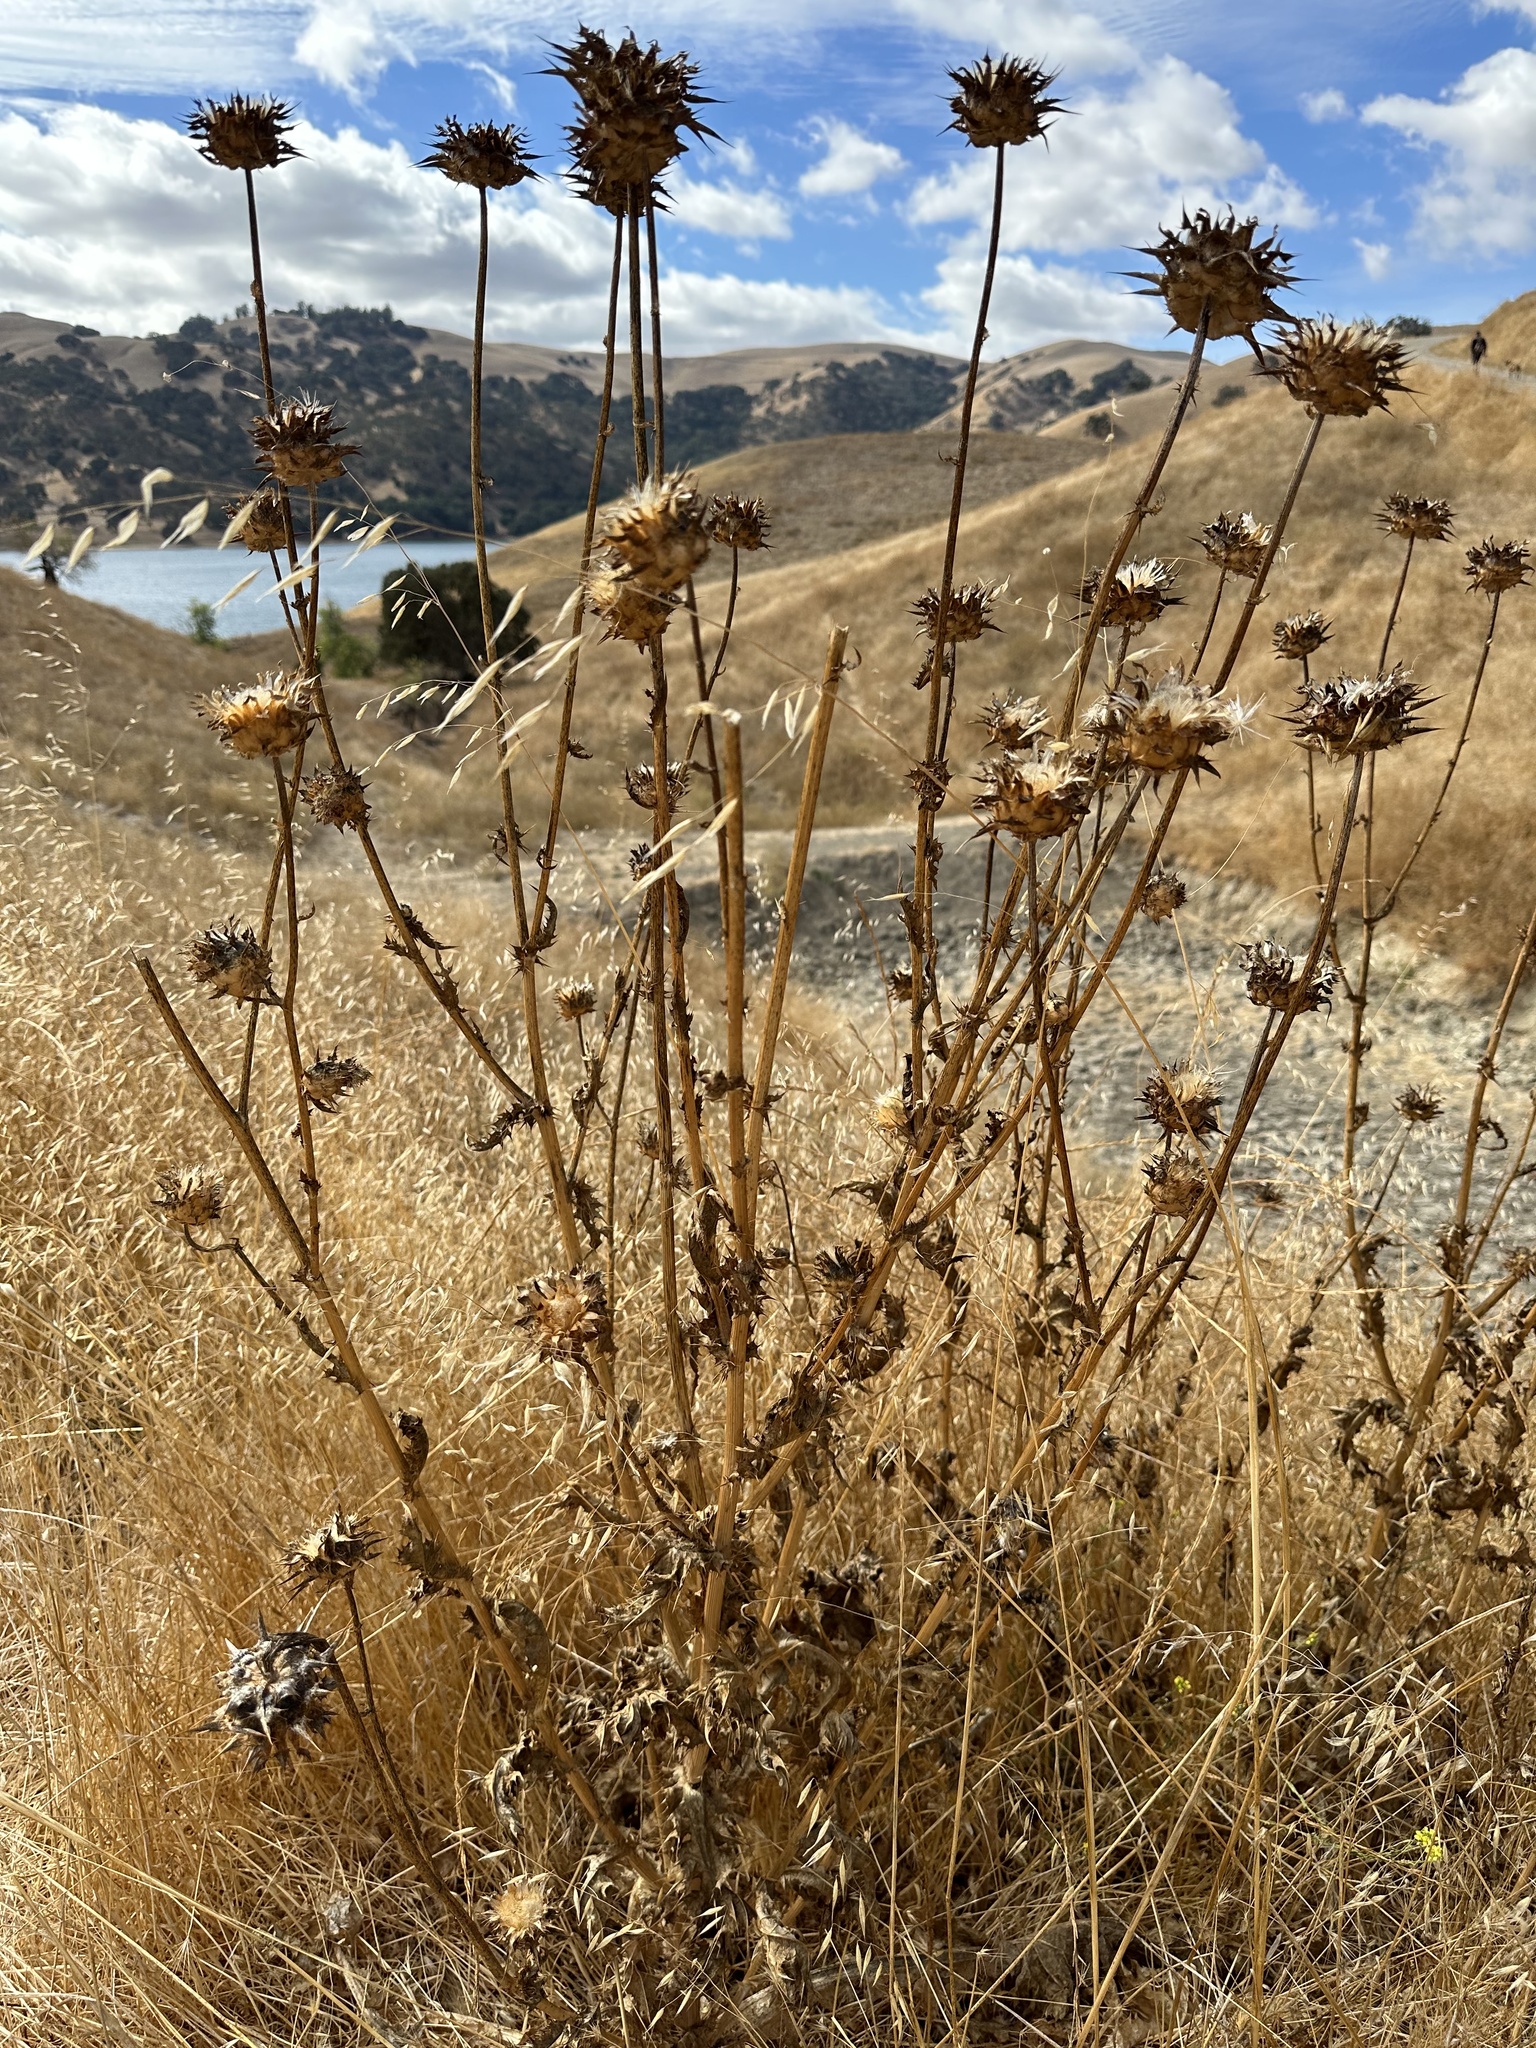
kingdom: Plantae
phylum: Tracheophyta
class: Magnoliopsida
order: Asterales
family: Asteraceae
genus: Silybum
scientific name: Silybum marianum
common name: Milk thistle
